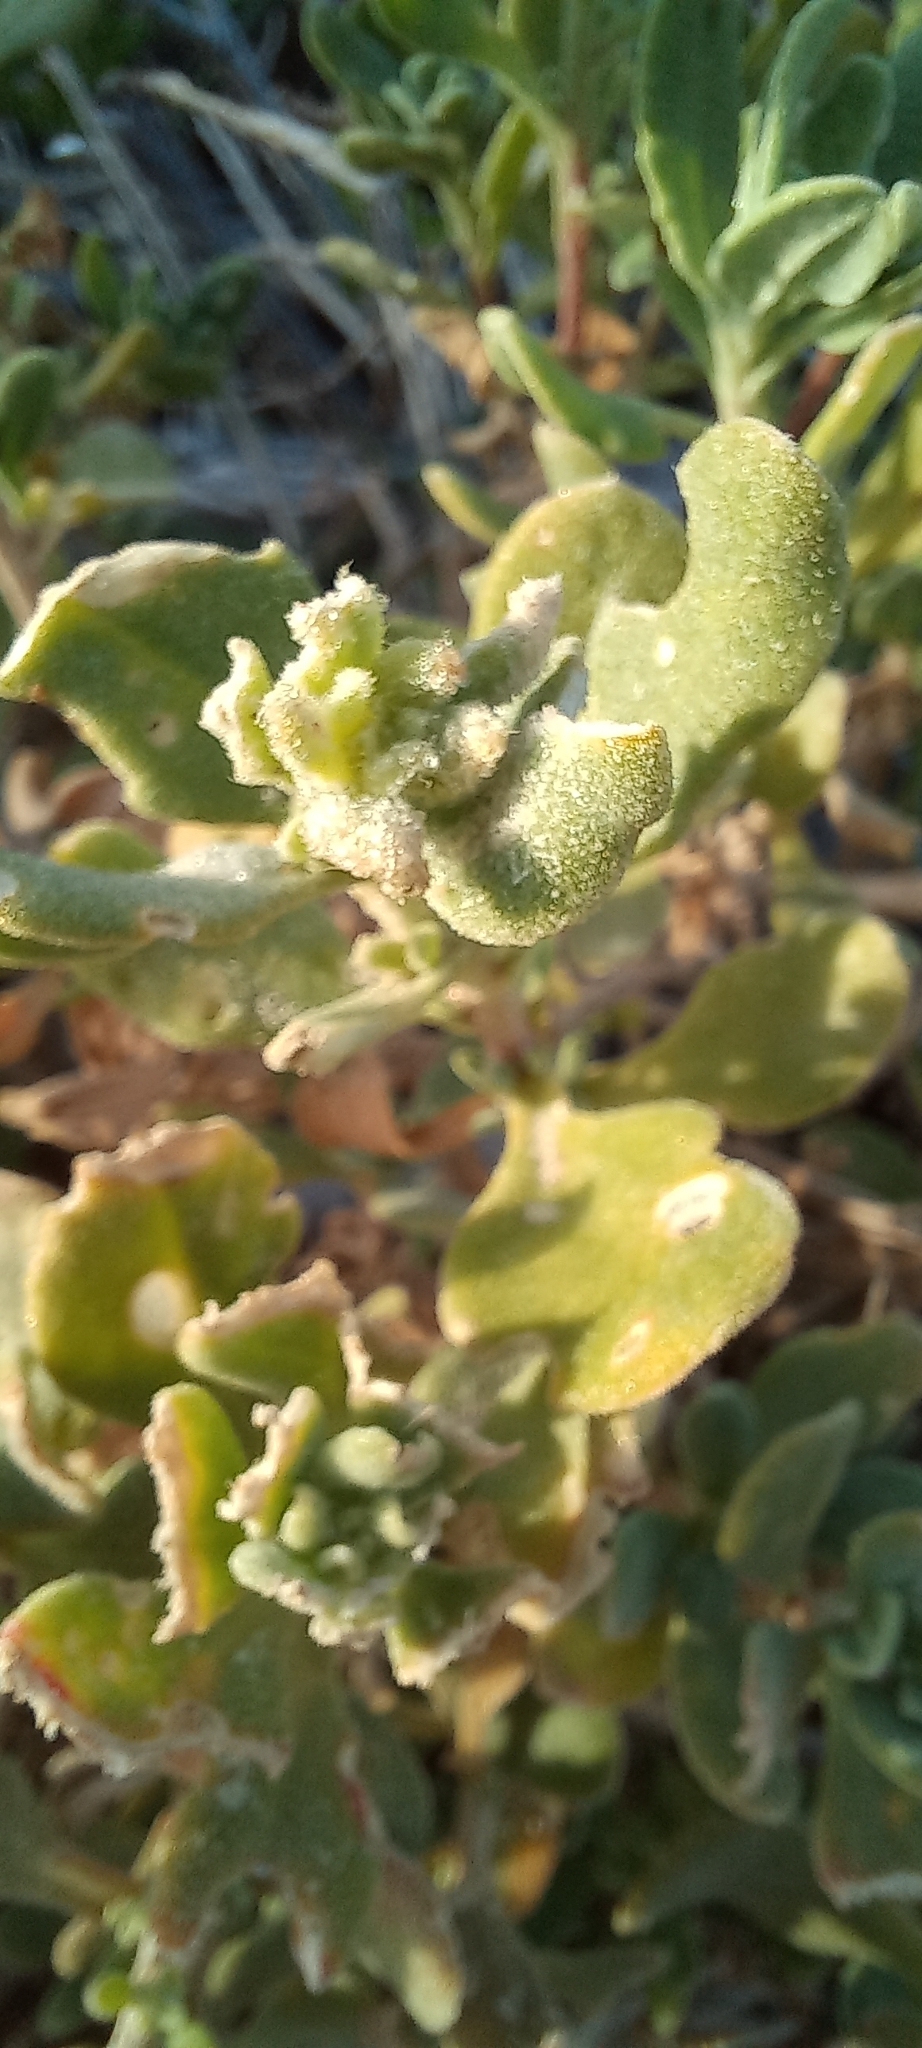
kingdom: Plantae
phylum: Tracheophyta
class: Magnoliopsida
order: Caryophyllales
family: Aizoaceae
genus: Tetragonia
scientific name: Tetragonia decumbens
